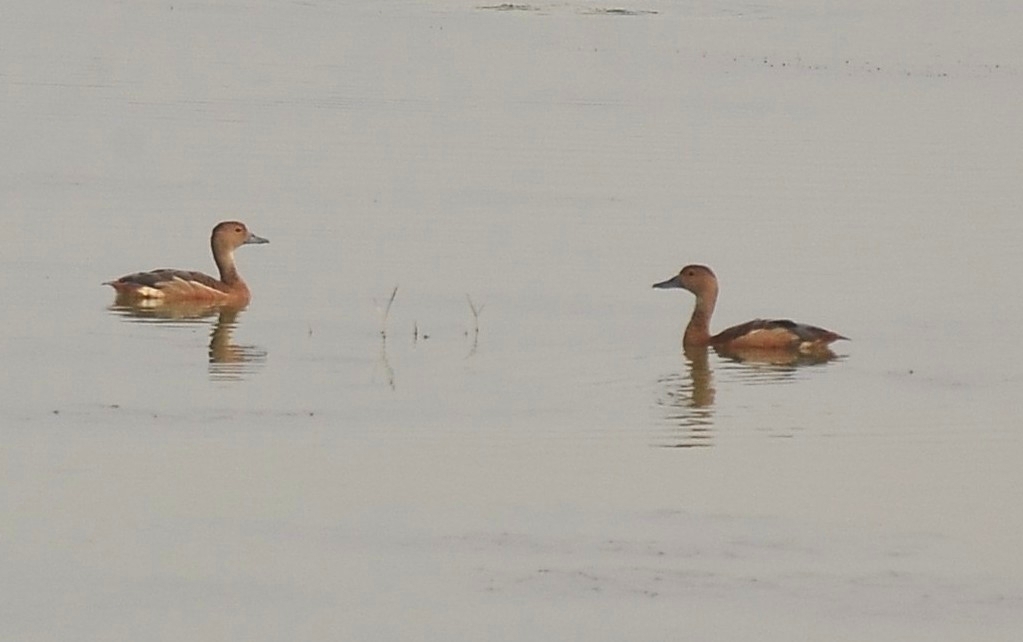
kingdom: Animalia
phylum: Chordata
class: Aves
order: Anseriformes
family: Anatidae
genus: Dendrocygna
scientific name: Dendrocygna javanica
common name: Lesser whistling-duck
